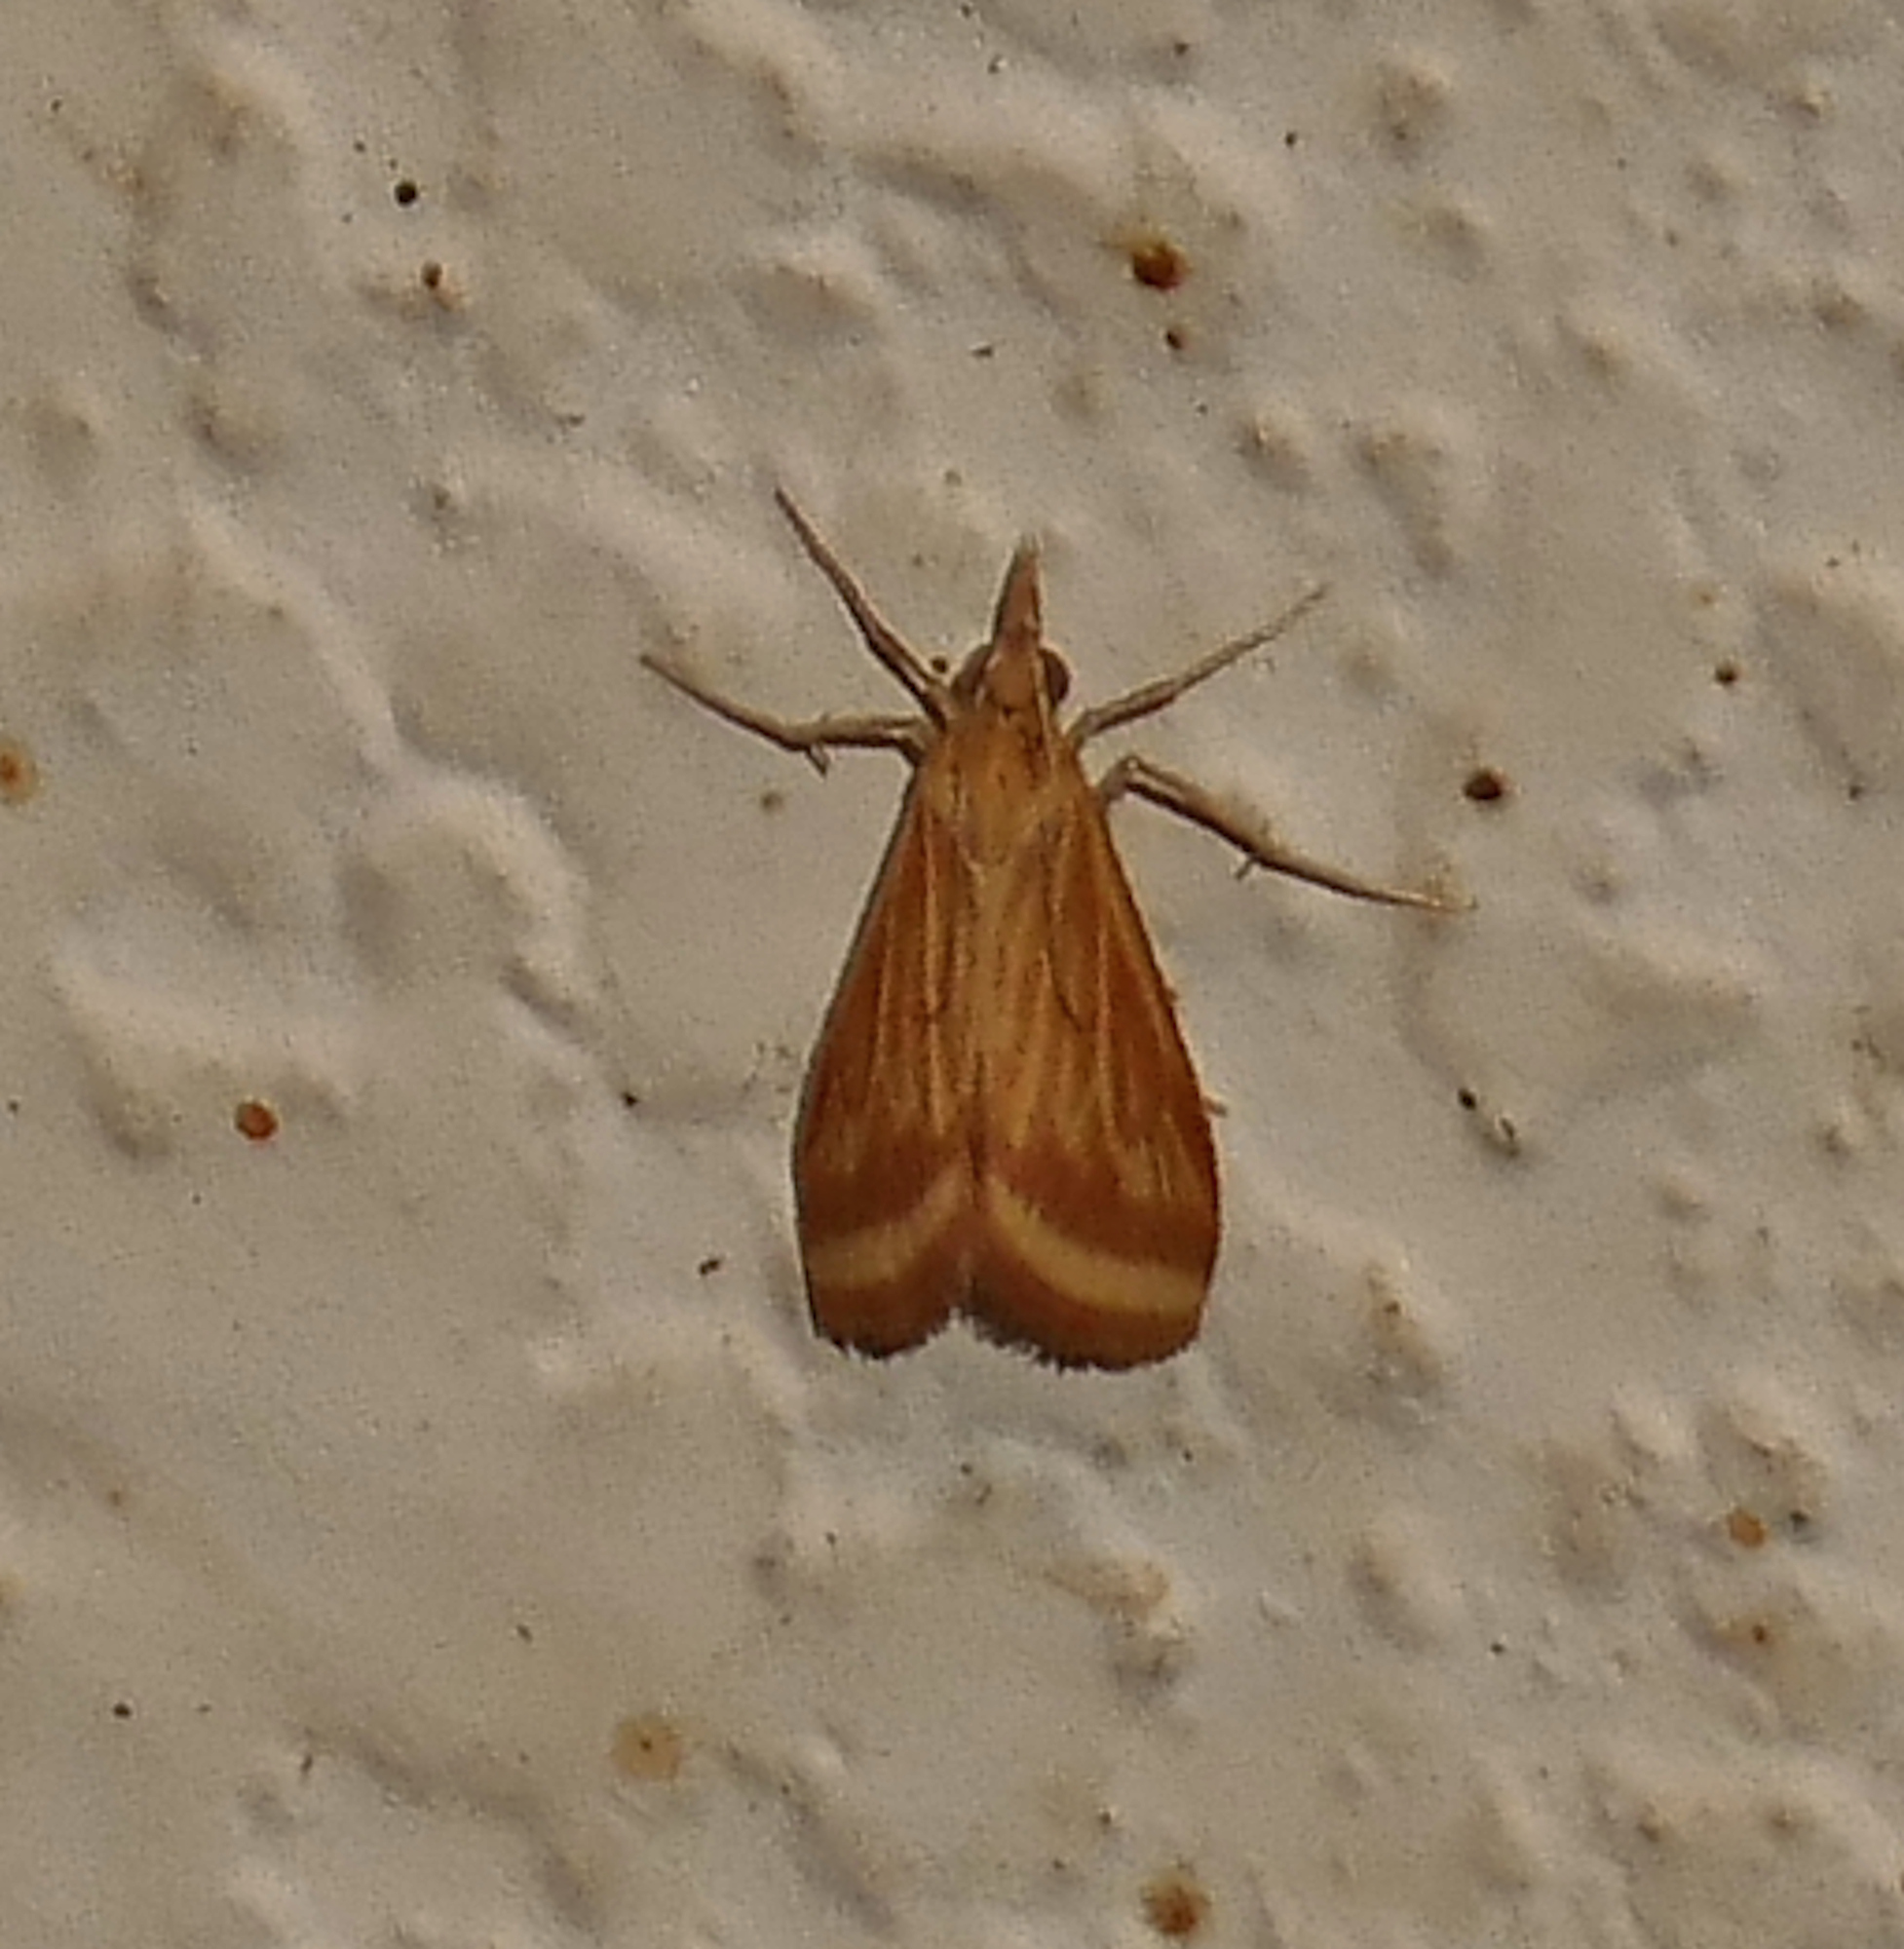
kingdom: Animalia
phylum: Arthropoda
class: Insecta
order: Lepidoptera
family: Crambidae
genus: Microtheoris
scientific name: Microtheoris ophionalis
